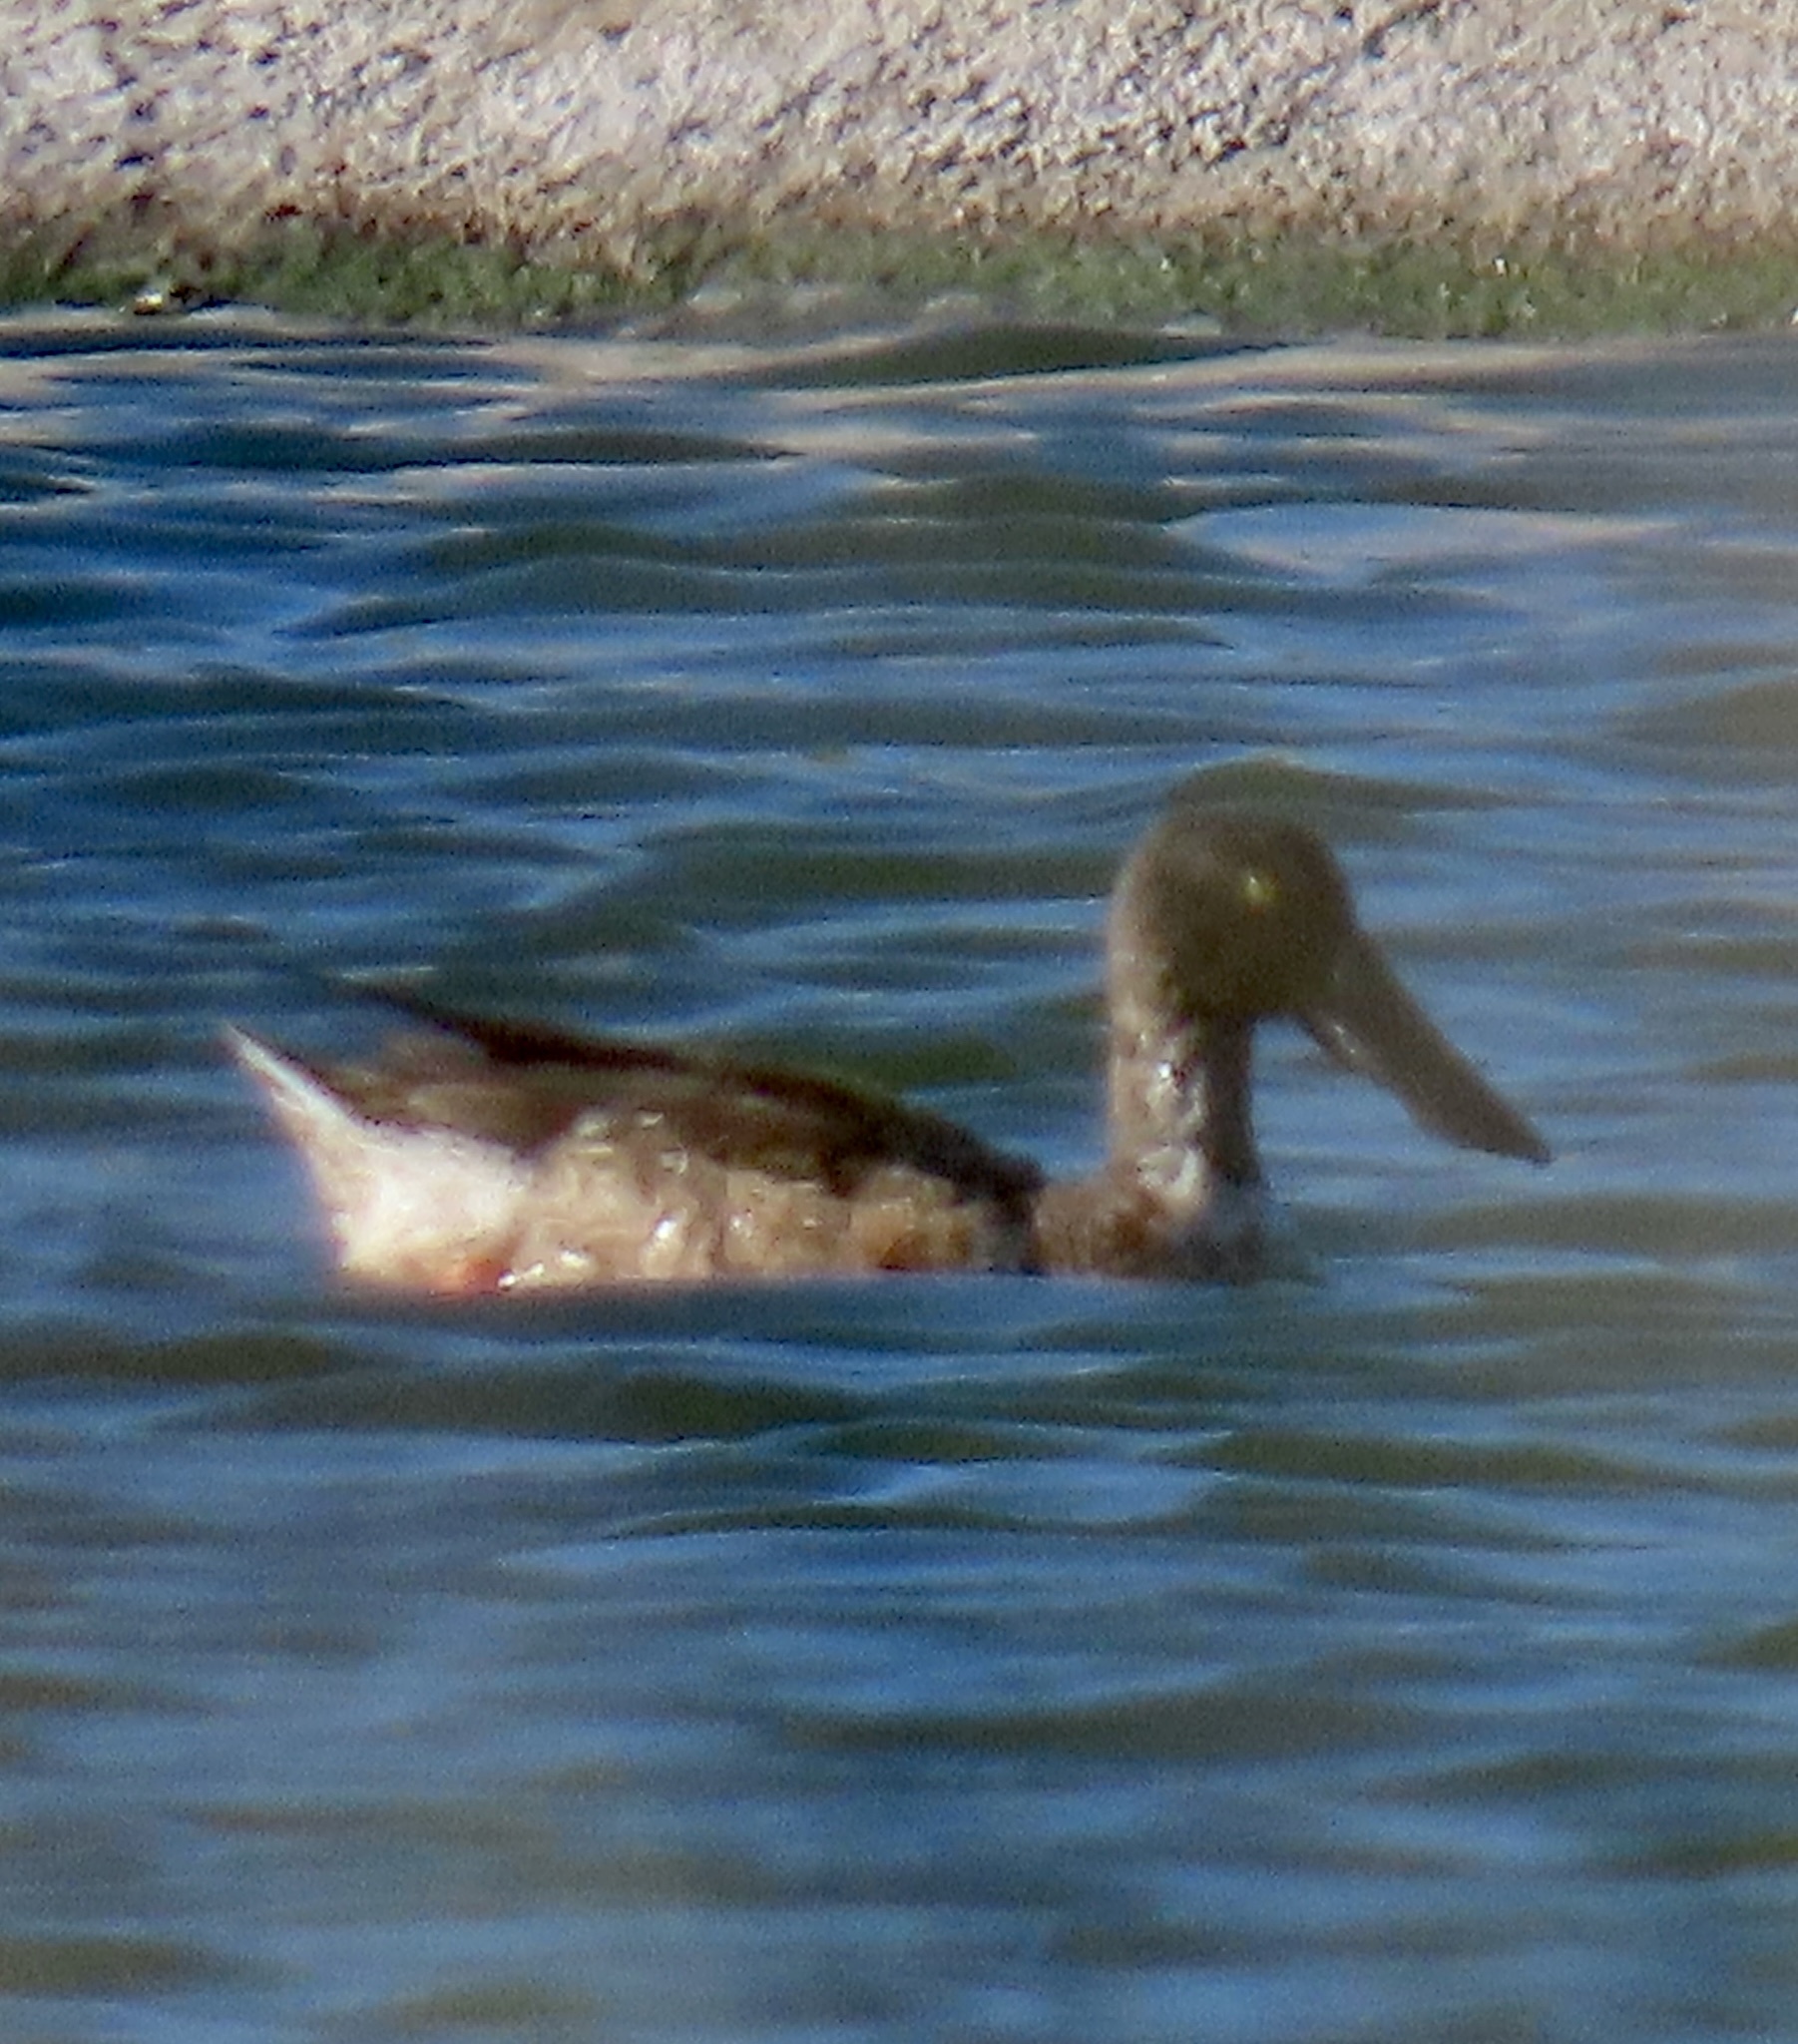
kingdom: Animalia
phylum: Chordata
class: Aves
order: Anseriformes
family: Anatidae
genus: Spatula
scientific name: Spatula clypeata
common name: Northern shoveler
